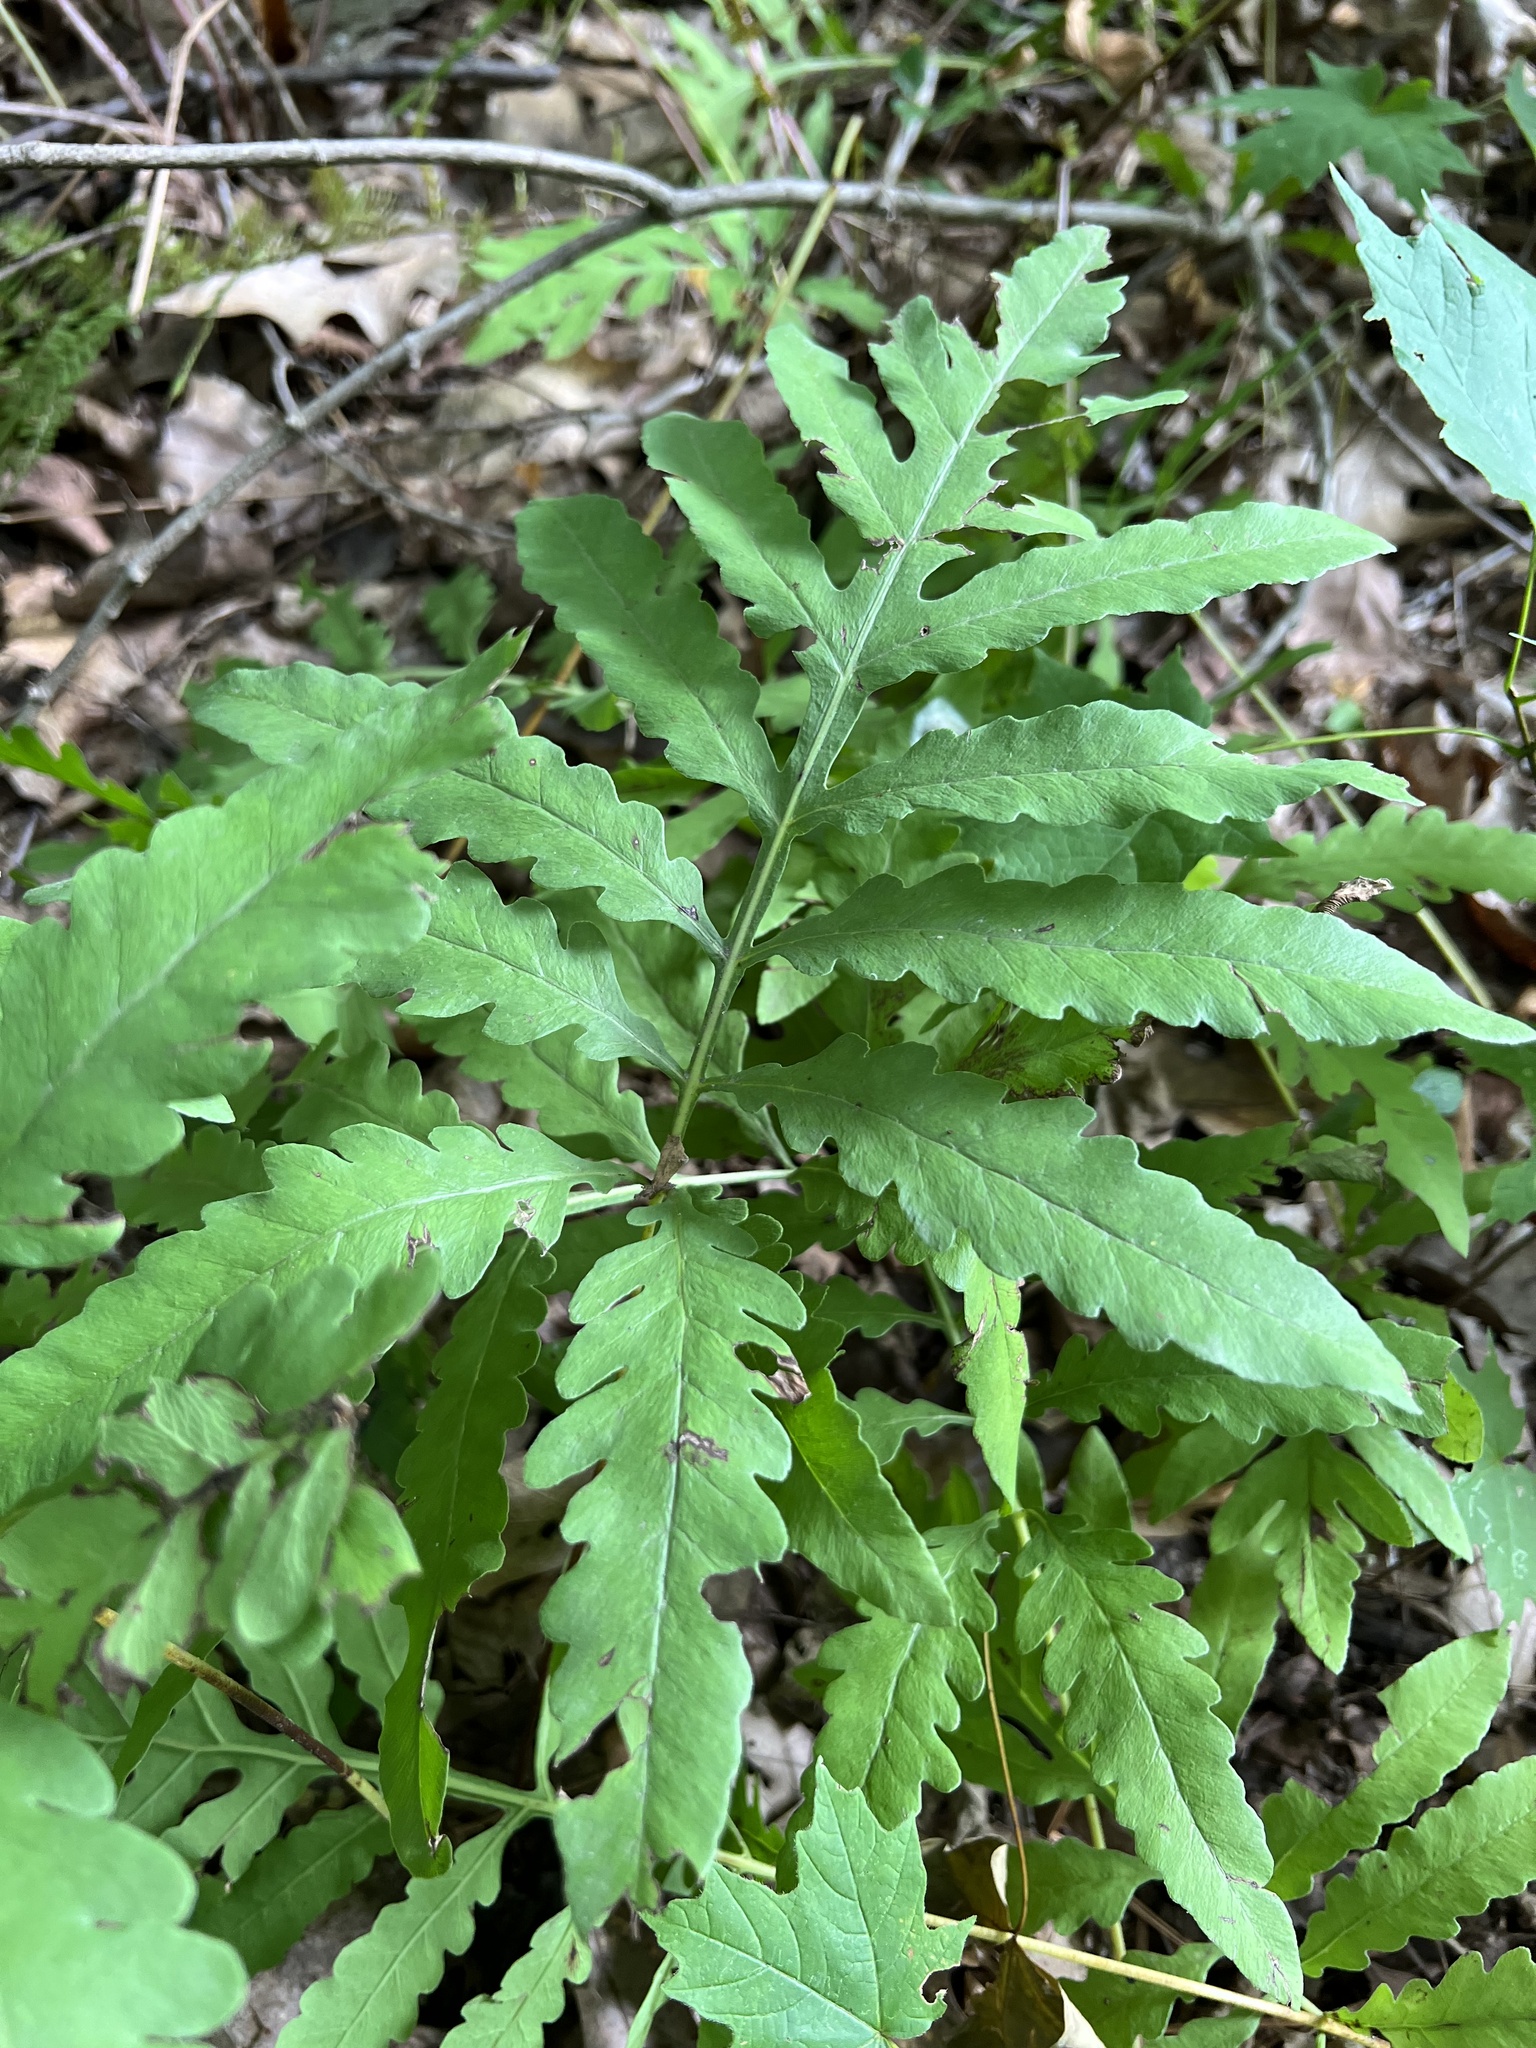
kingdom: Plantae
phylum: Tracheophyta
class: Polypodiopsida
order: Polypodiales
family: Onocleaceae
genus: Onoclea
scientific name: Onoclea sensibilis
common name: Sensitive fern
